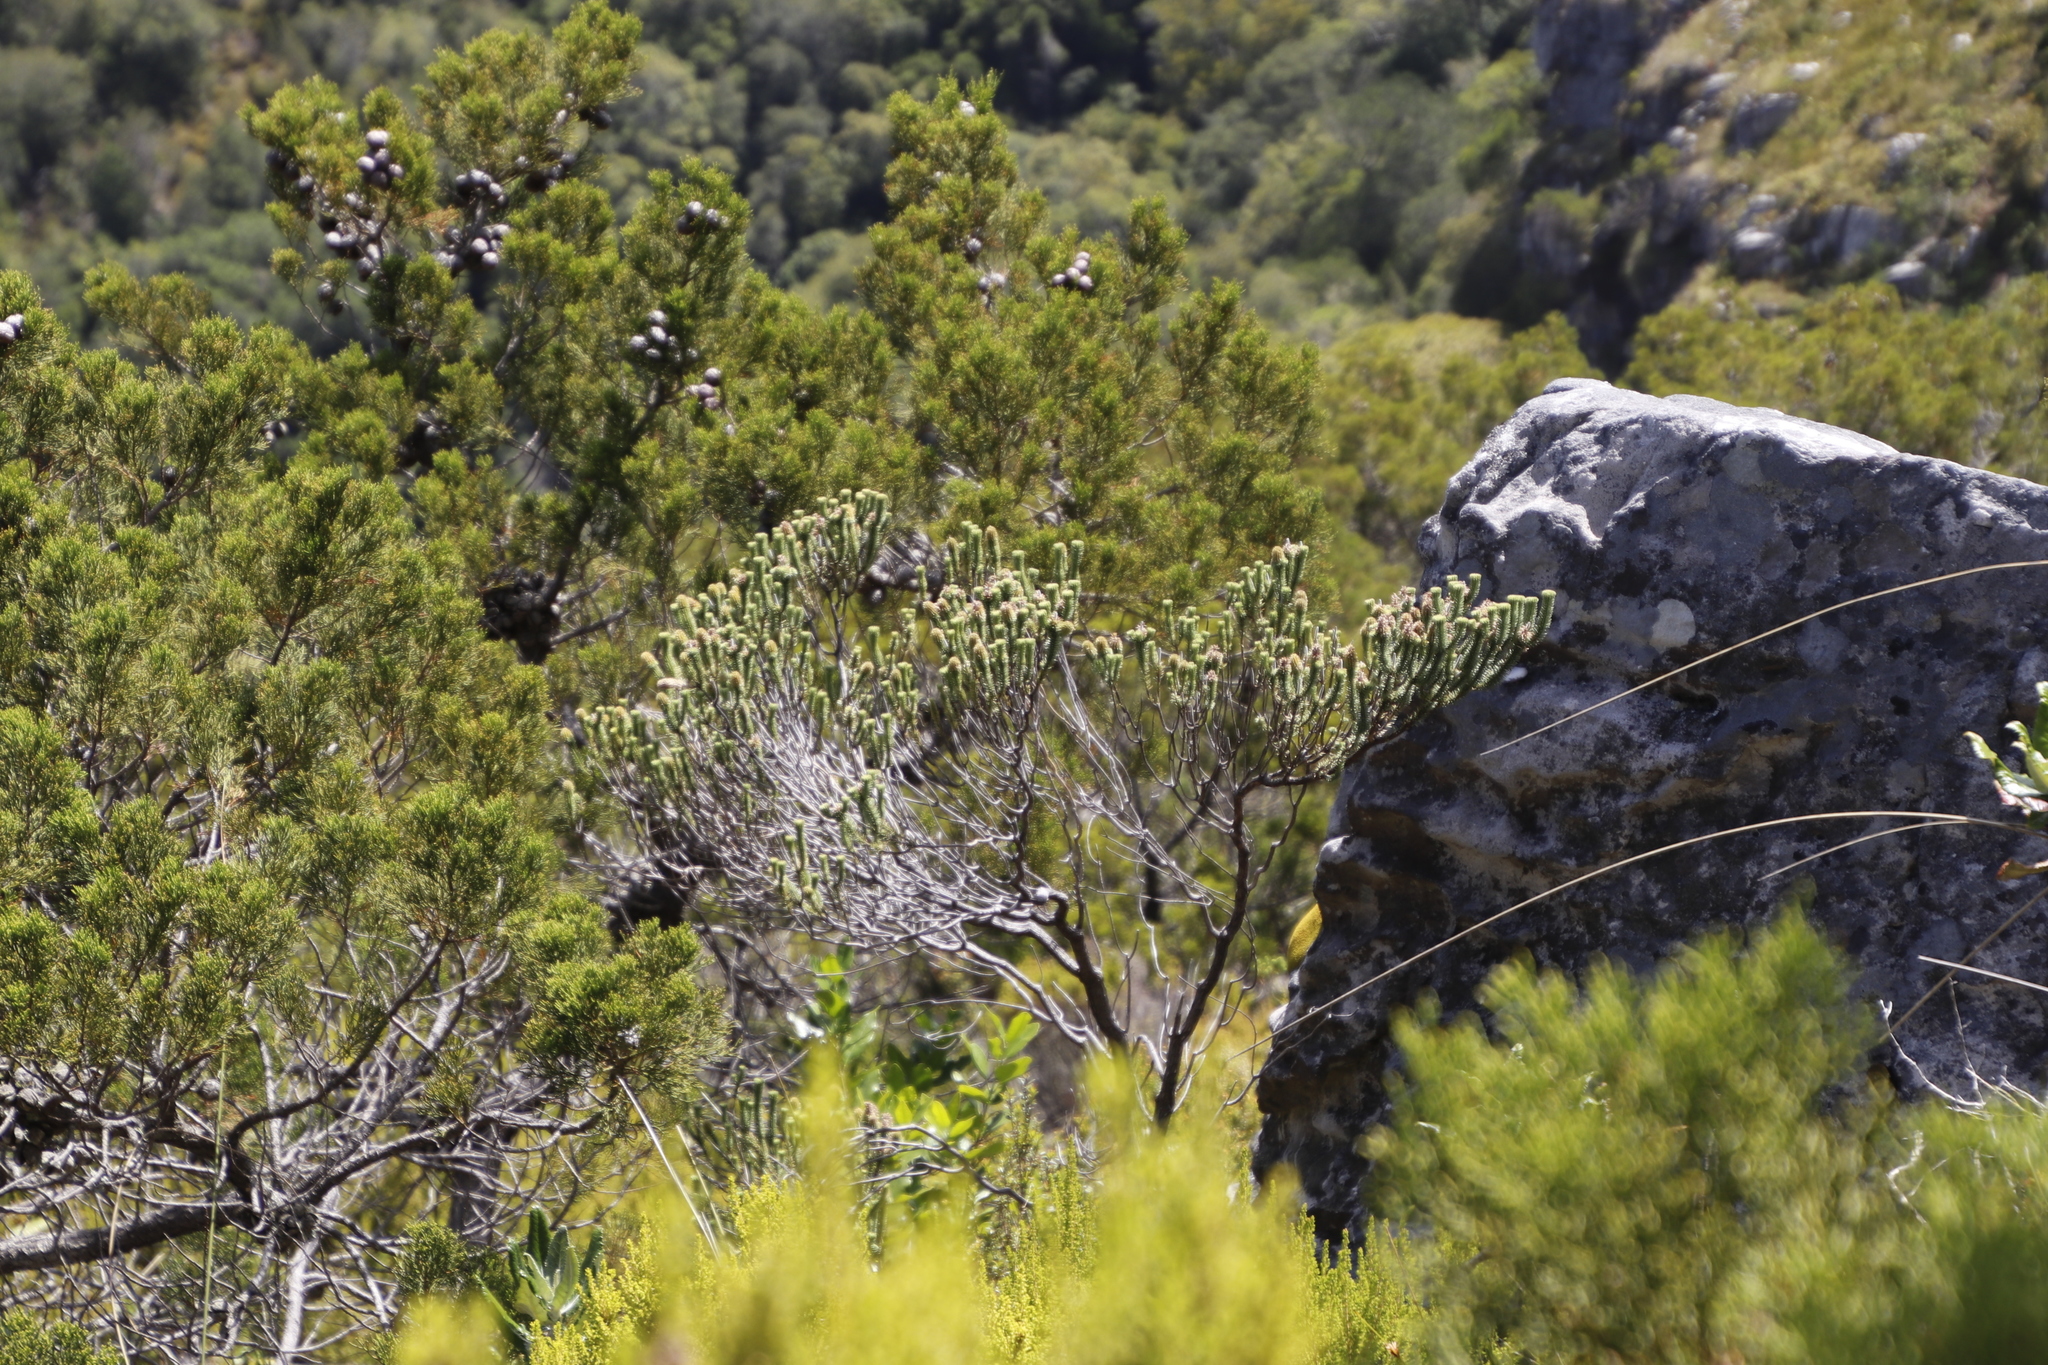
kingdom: Plantae
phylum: Tracheophyta
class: Magnoliopsida
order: Lamiales
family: Stilbaceae
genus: Stilbe
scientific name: Stilbe vestita
